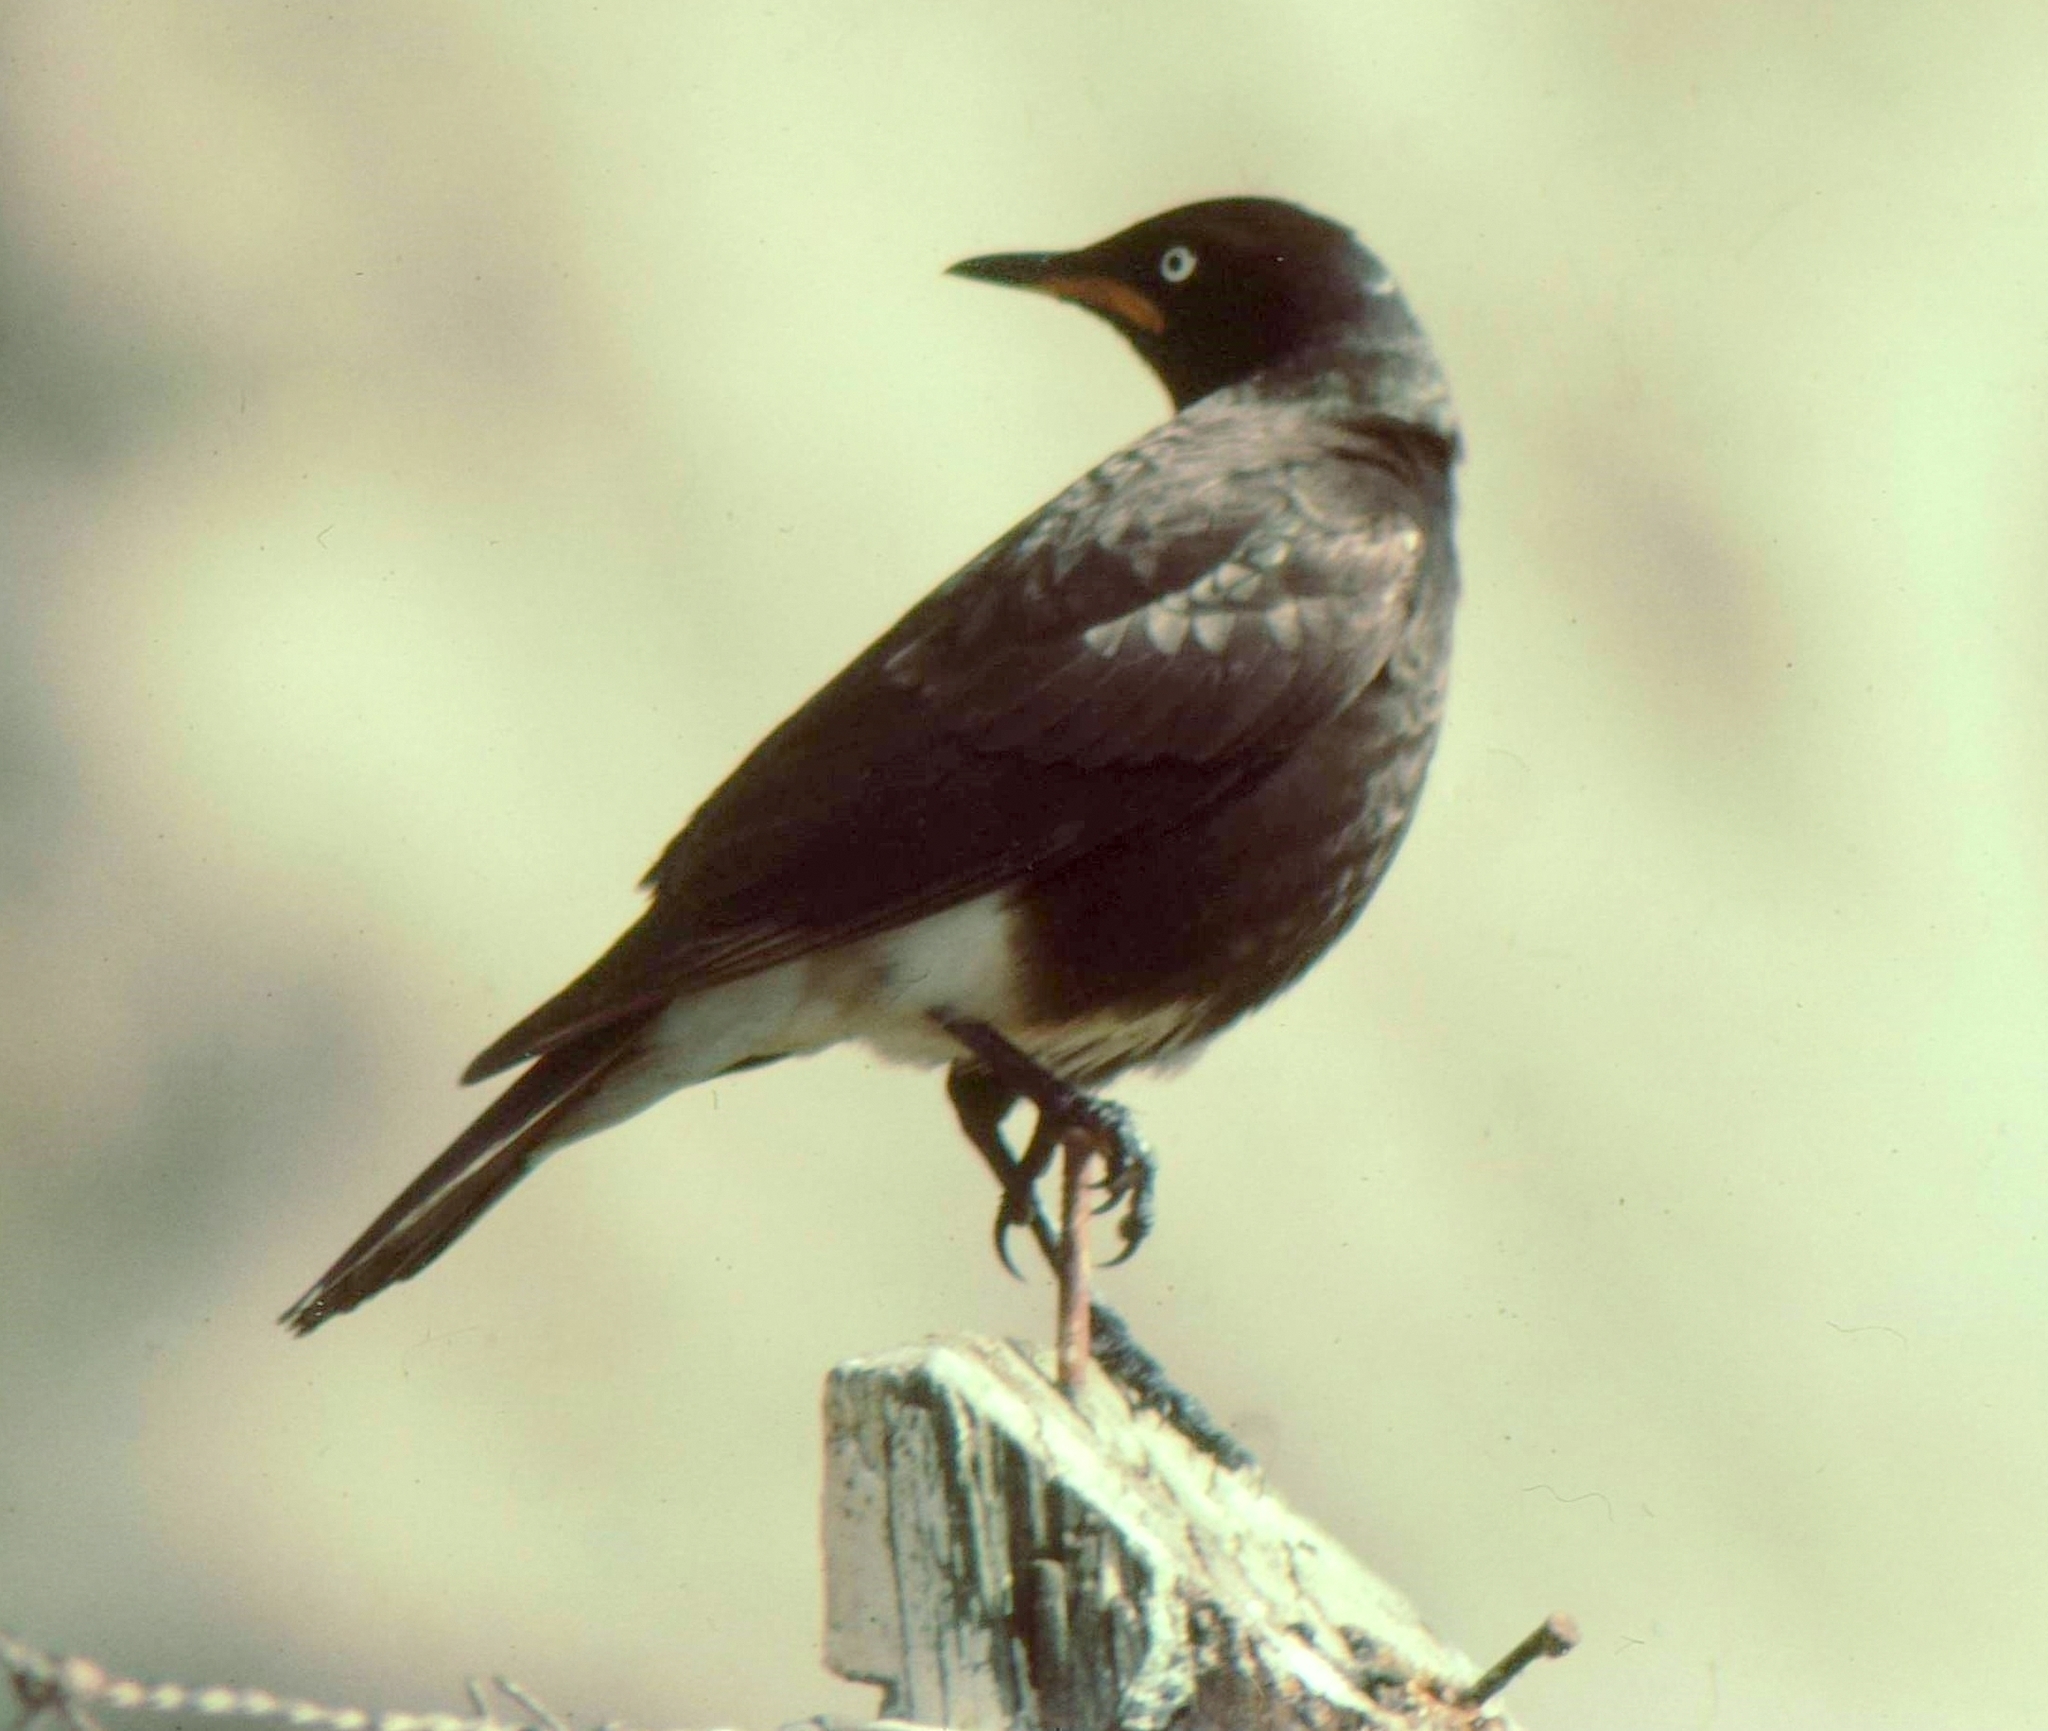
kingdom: Animalia
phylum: Chordata
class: Aves
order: Passeriformes
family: Sturnidae
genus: Lamprotornis
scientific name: Lamprotornis bicolor
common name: Pied starling
